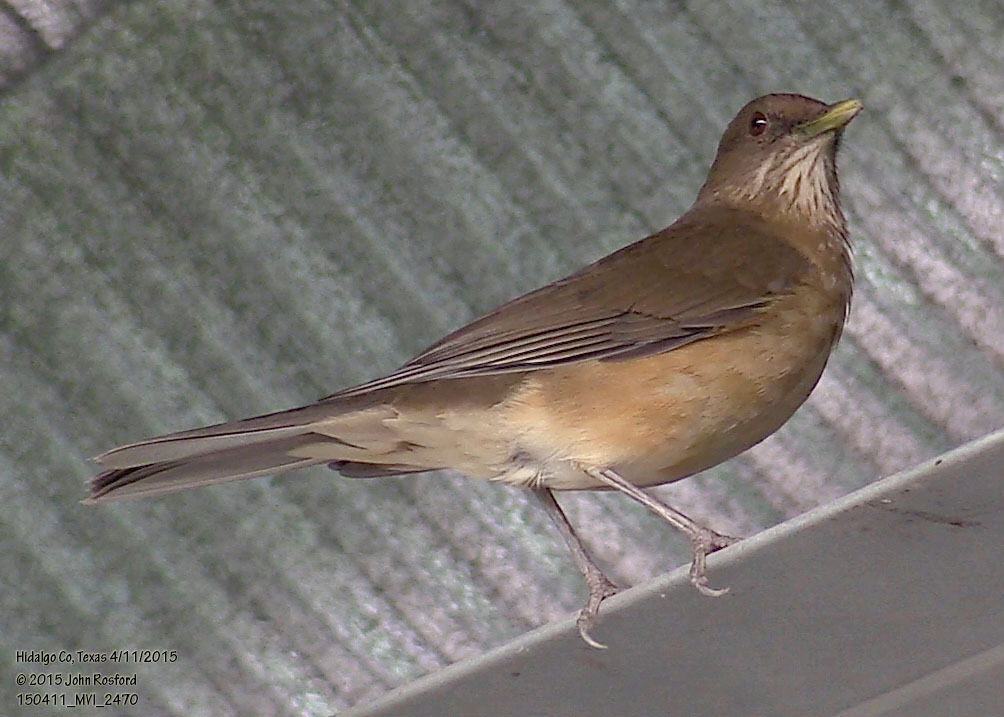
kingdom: Animalia
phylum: Chordata
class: Aves
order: Passeriformes
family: Turdidae
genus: Turdus
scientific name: Turdus grayi
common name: Clay-colored thrush
